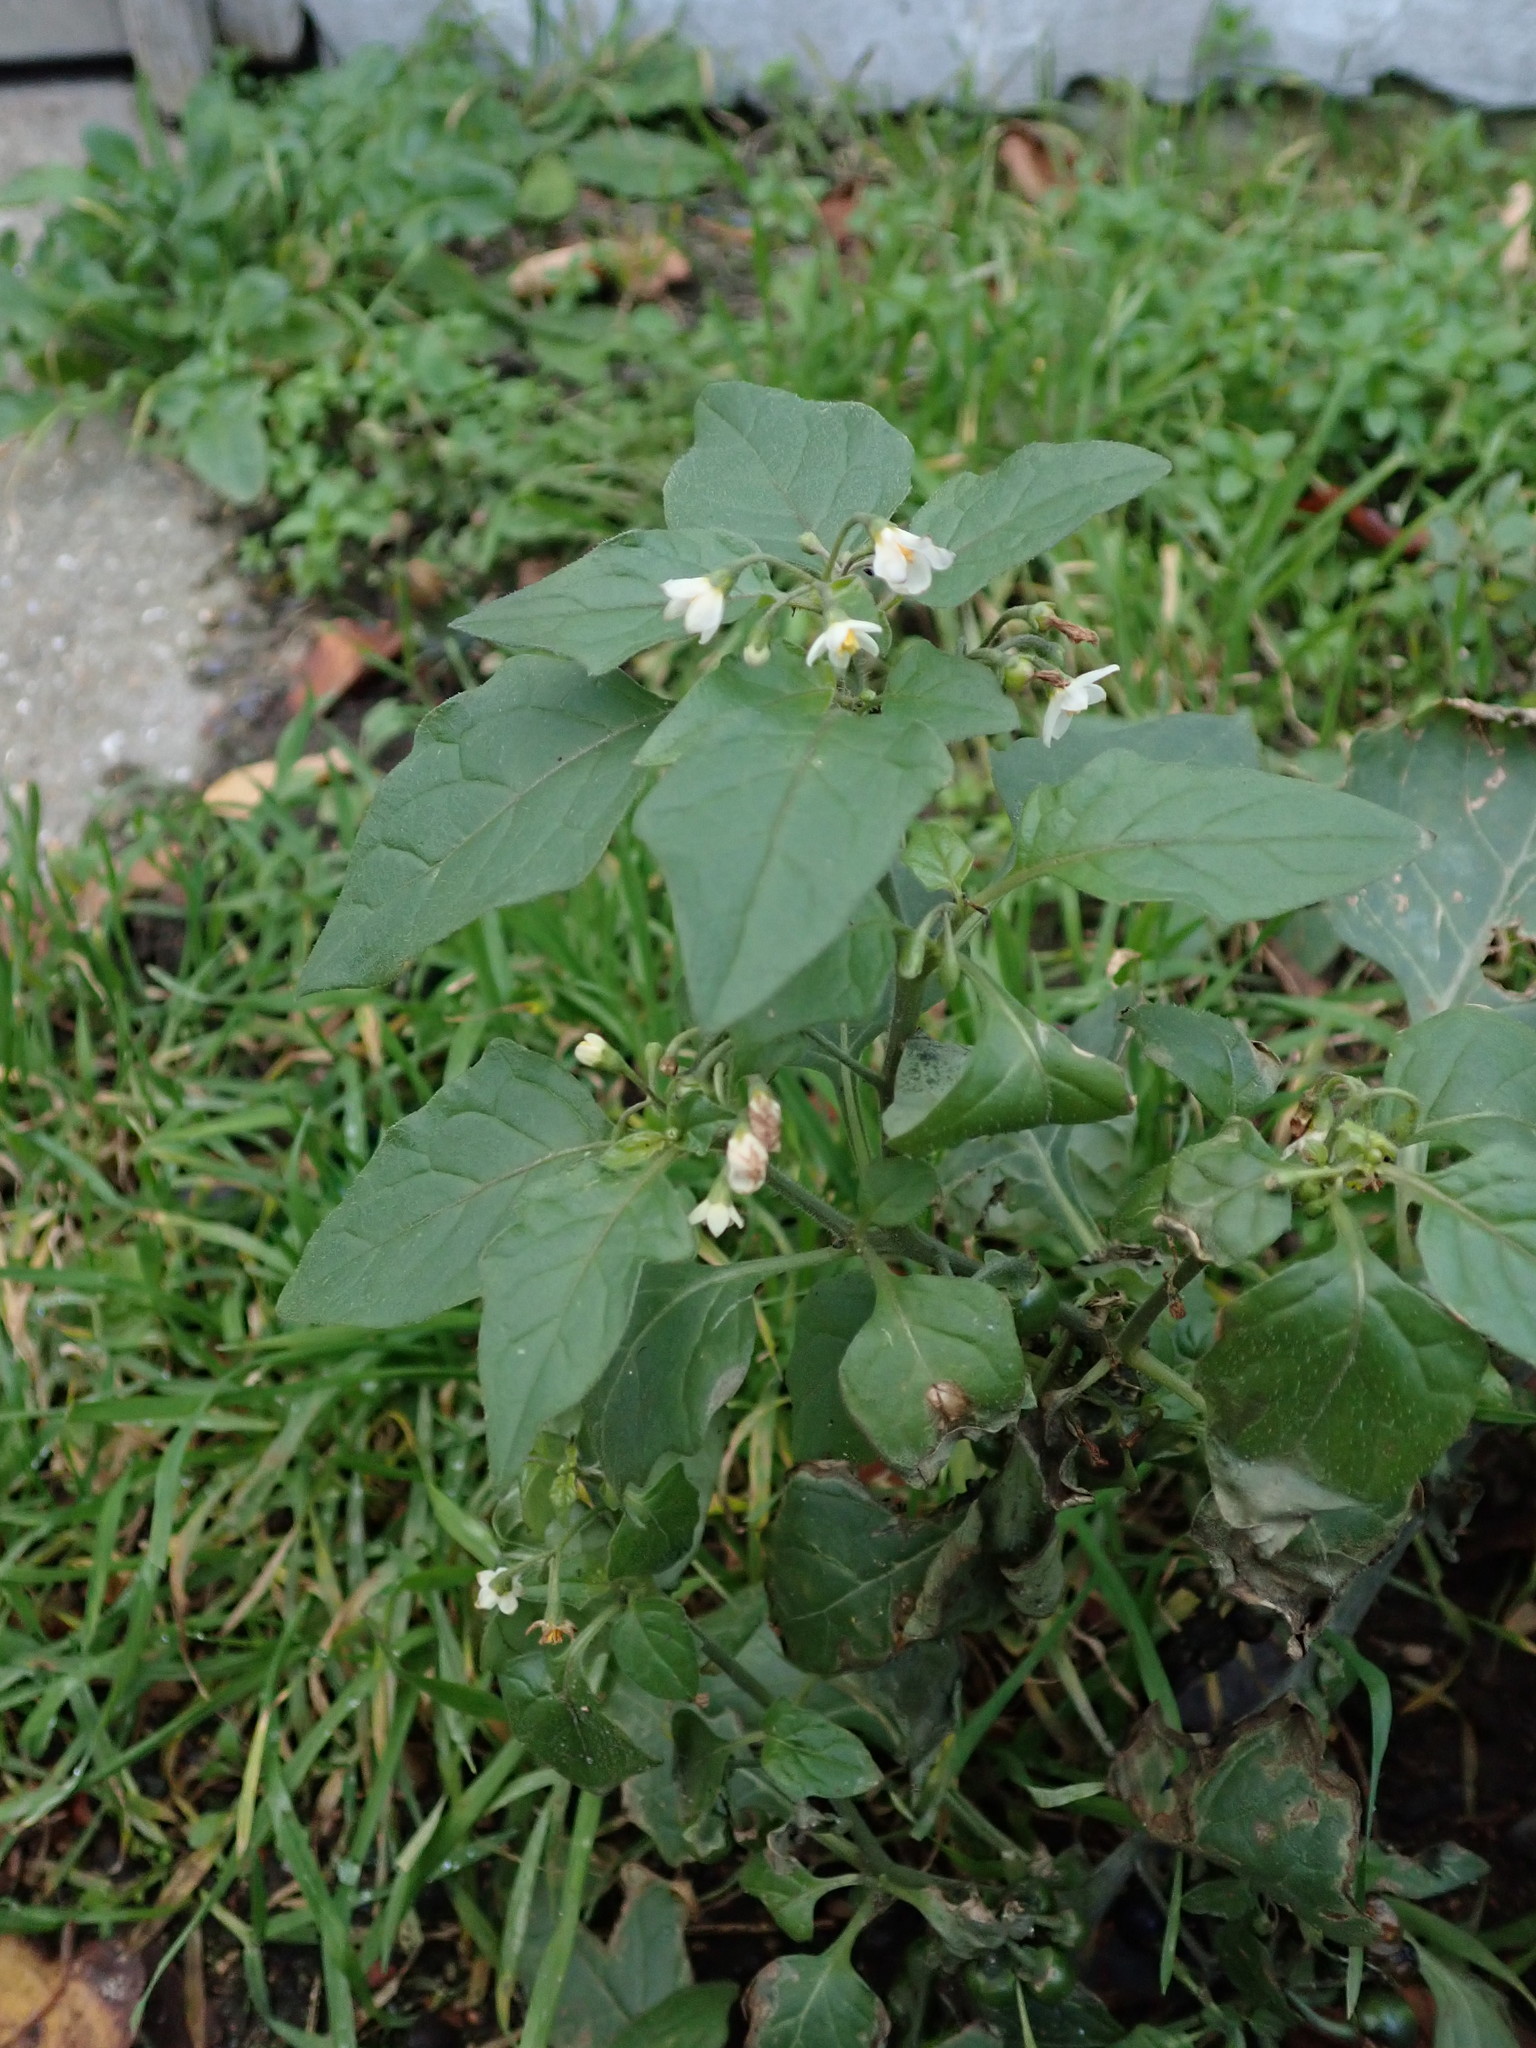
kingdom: Plantae
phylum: Tracheophyta
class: Magnoliopsida
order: Solanales
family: Solanaceae
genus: Solanum
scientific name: Solanum nigrum
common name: Black nightshade
